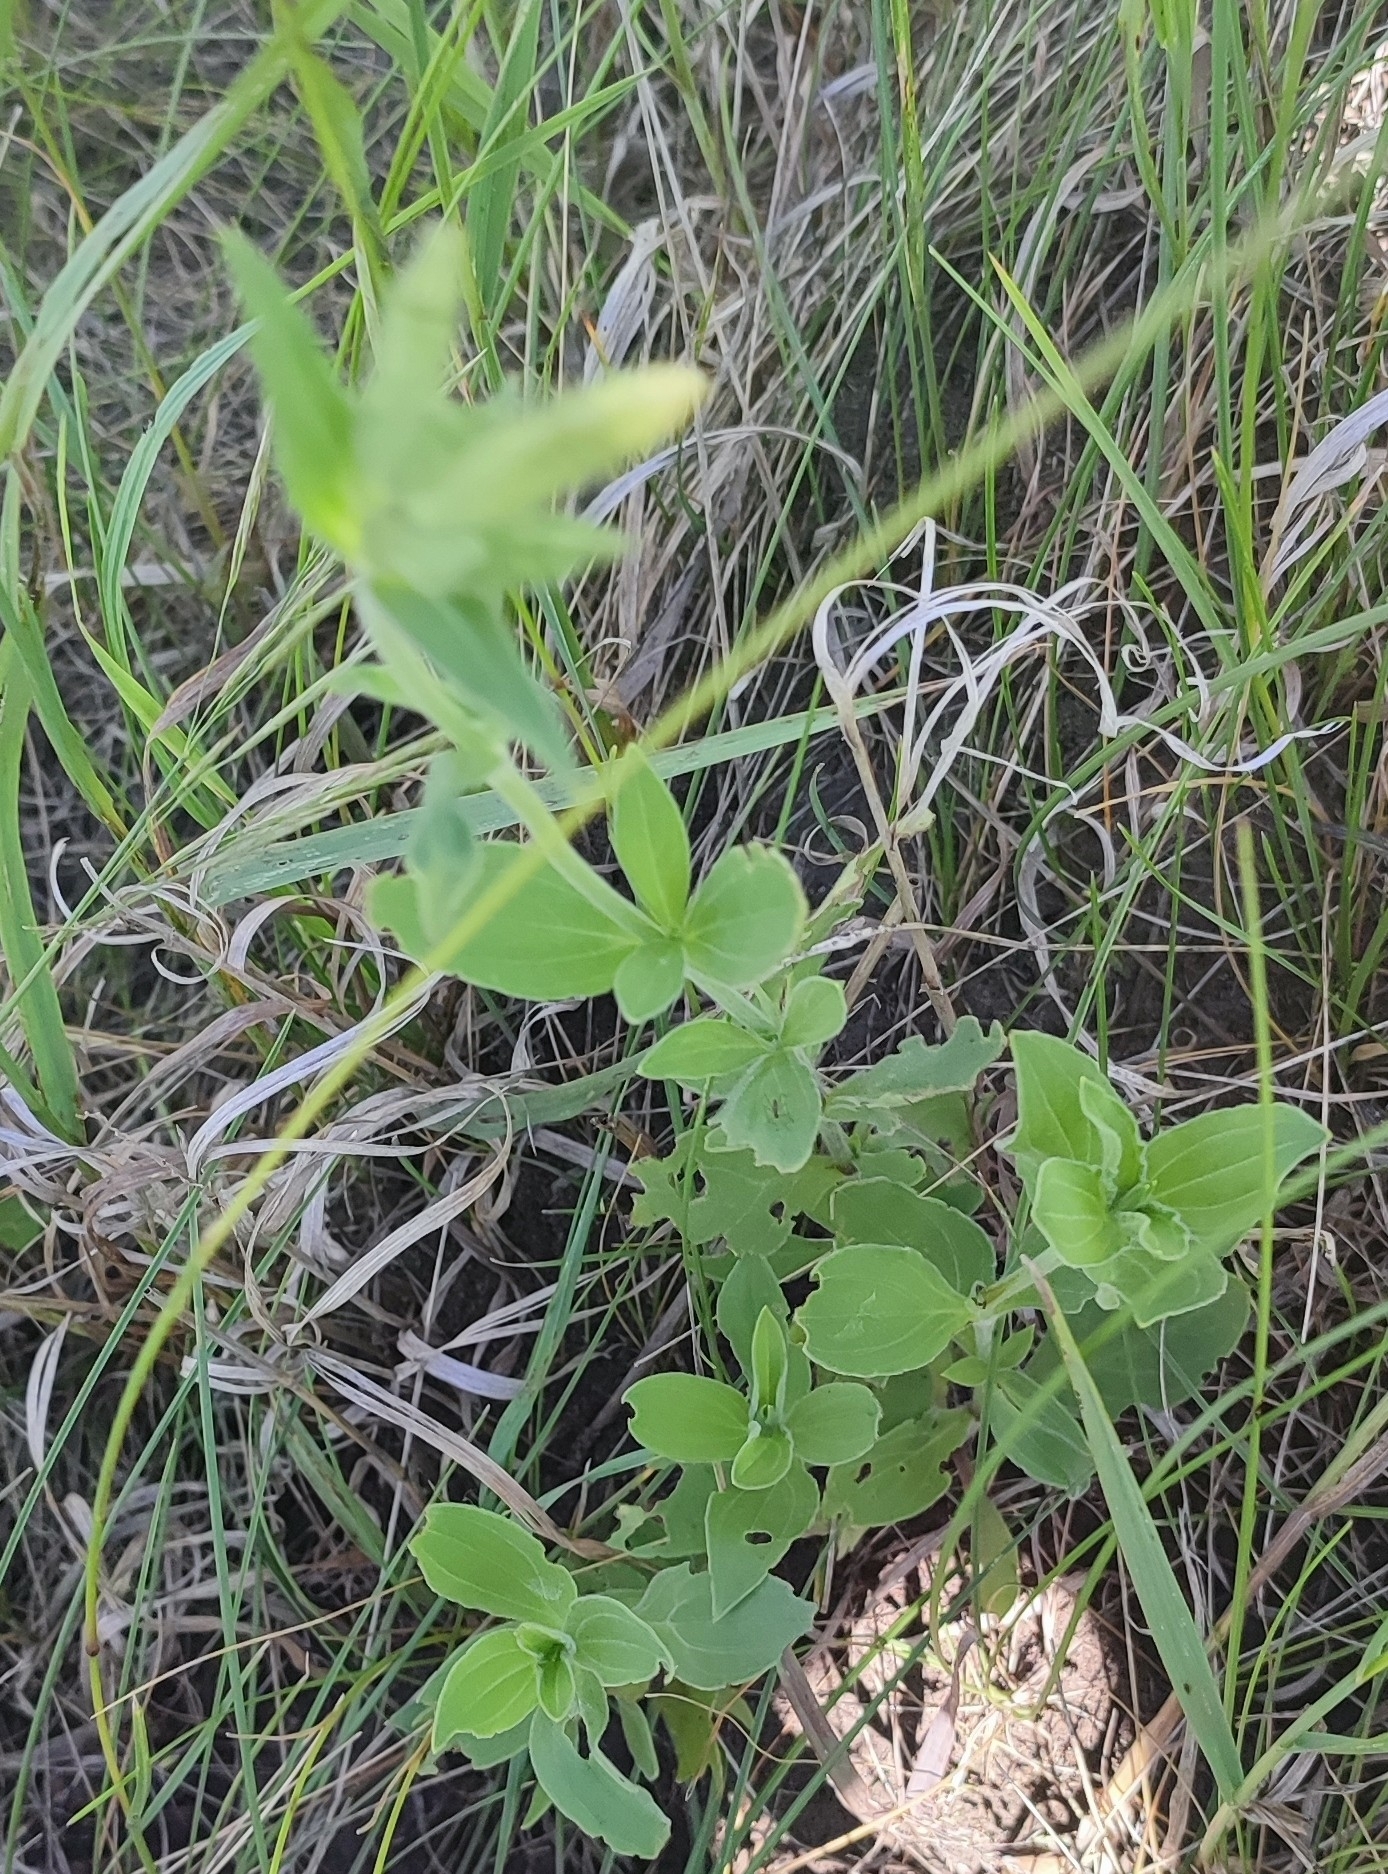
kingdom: Plantae
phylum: Tracheophyta
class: Magnoliopsida
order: Caryophyllales
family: Caryophyllaceae
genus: Silene
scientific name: Silene latifolia
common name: White campion
